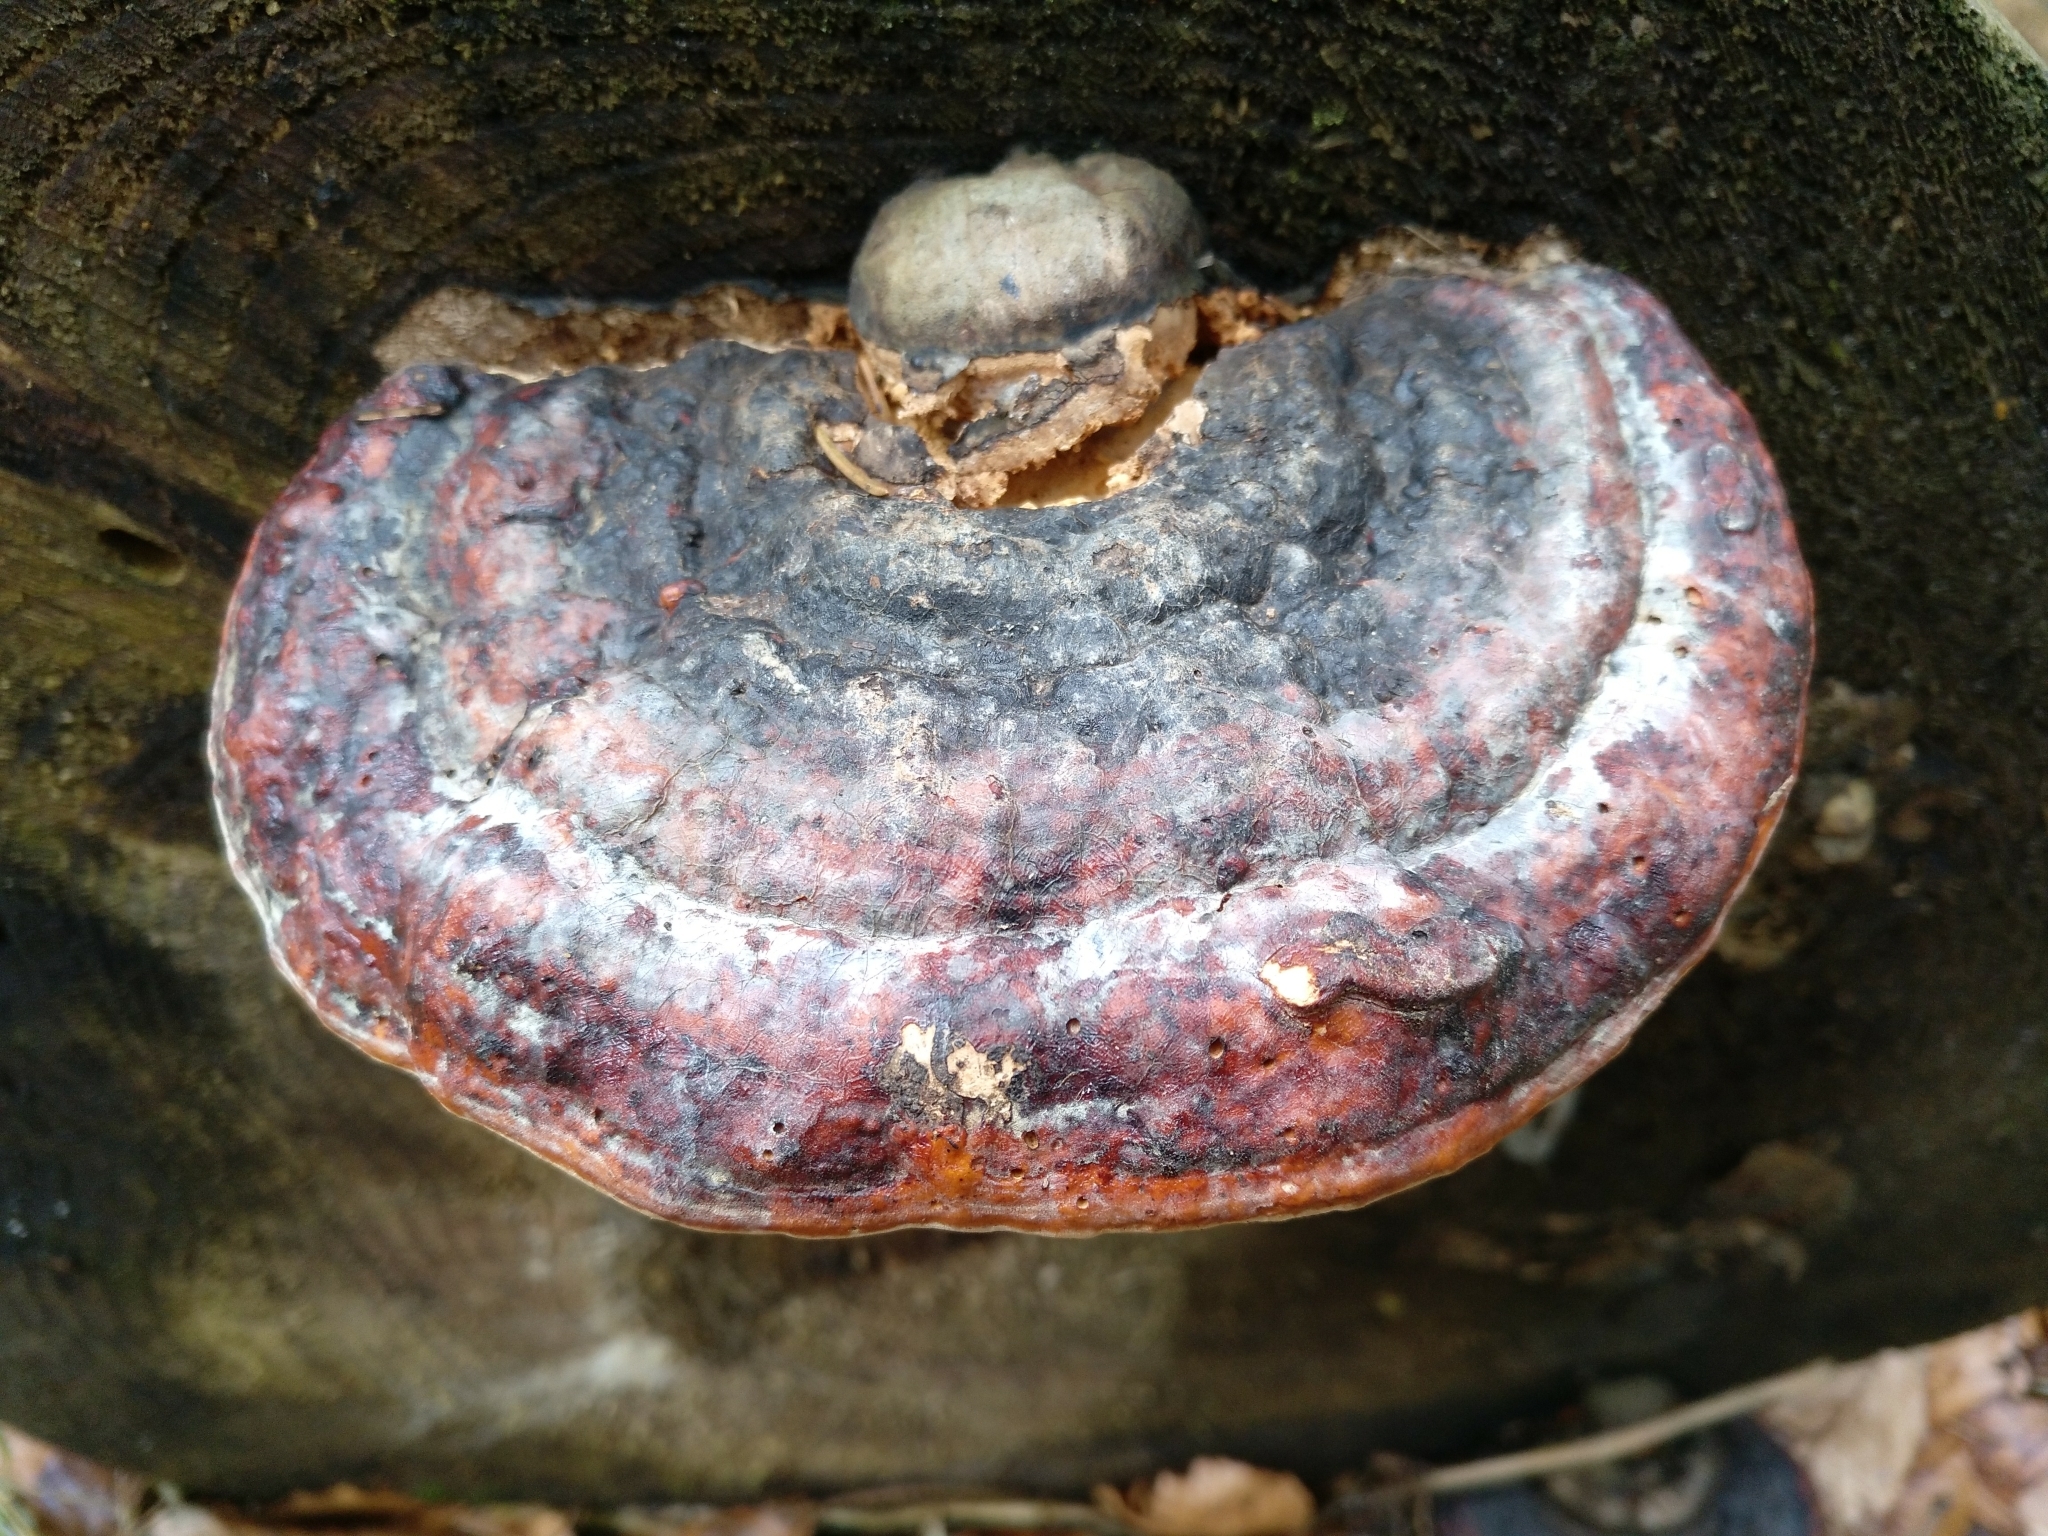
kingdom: Fungi
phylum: Basidiomycota
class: Agaricomycetes
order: Polyporales
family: Fomitopsidaceae
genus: Fomitopsis
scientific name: Fomitopsis pinicola
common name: Red-belted bracket
